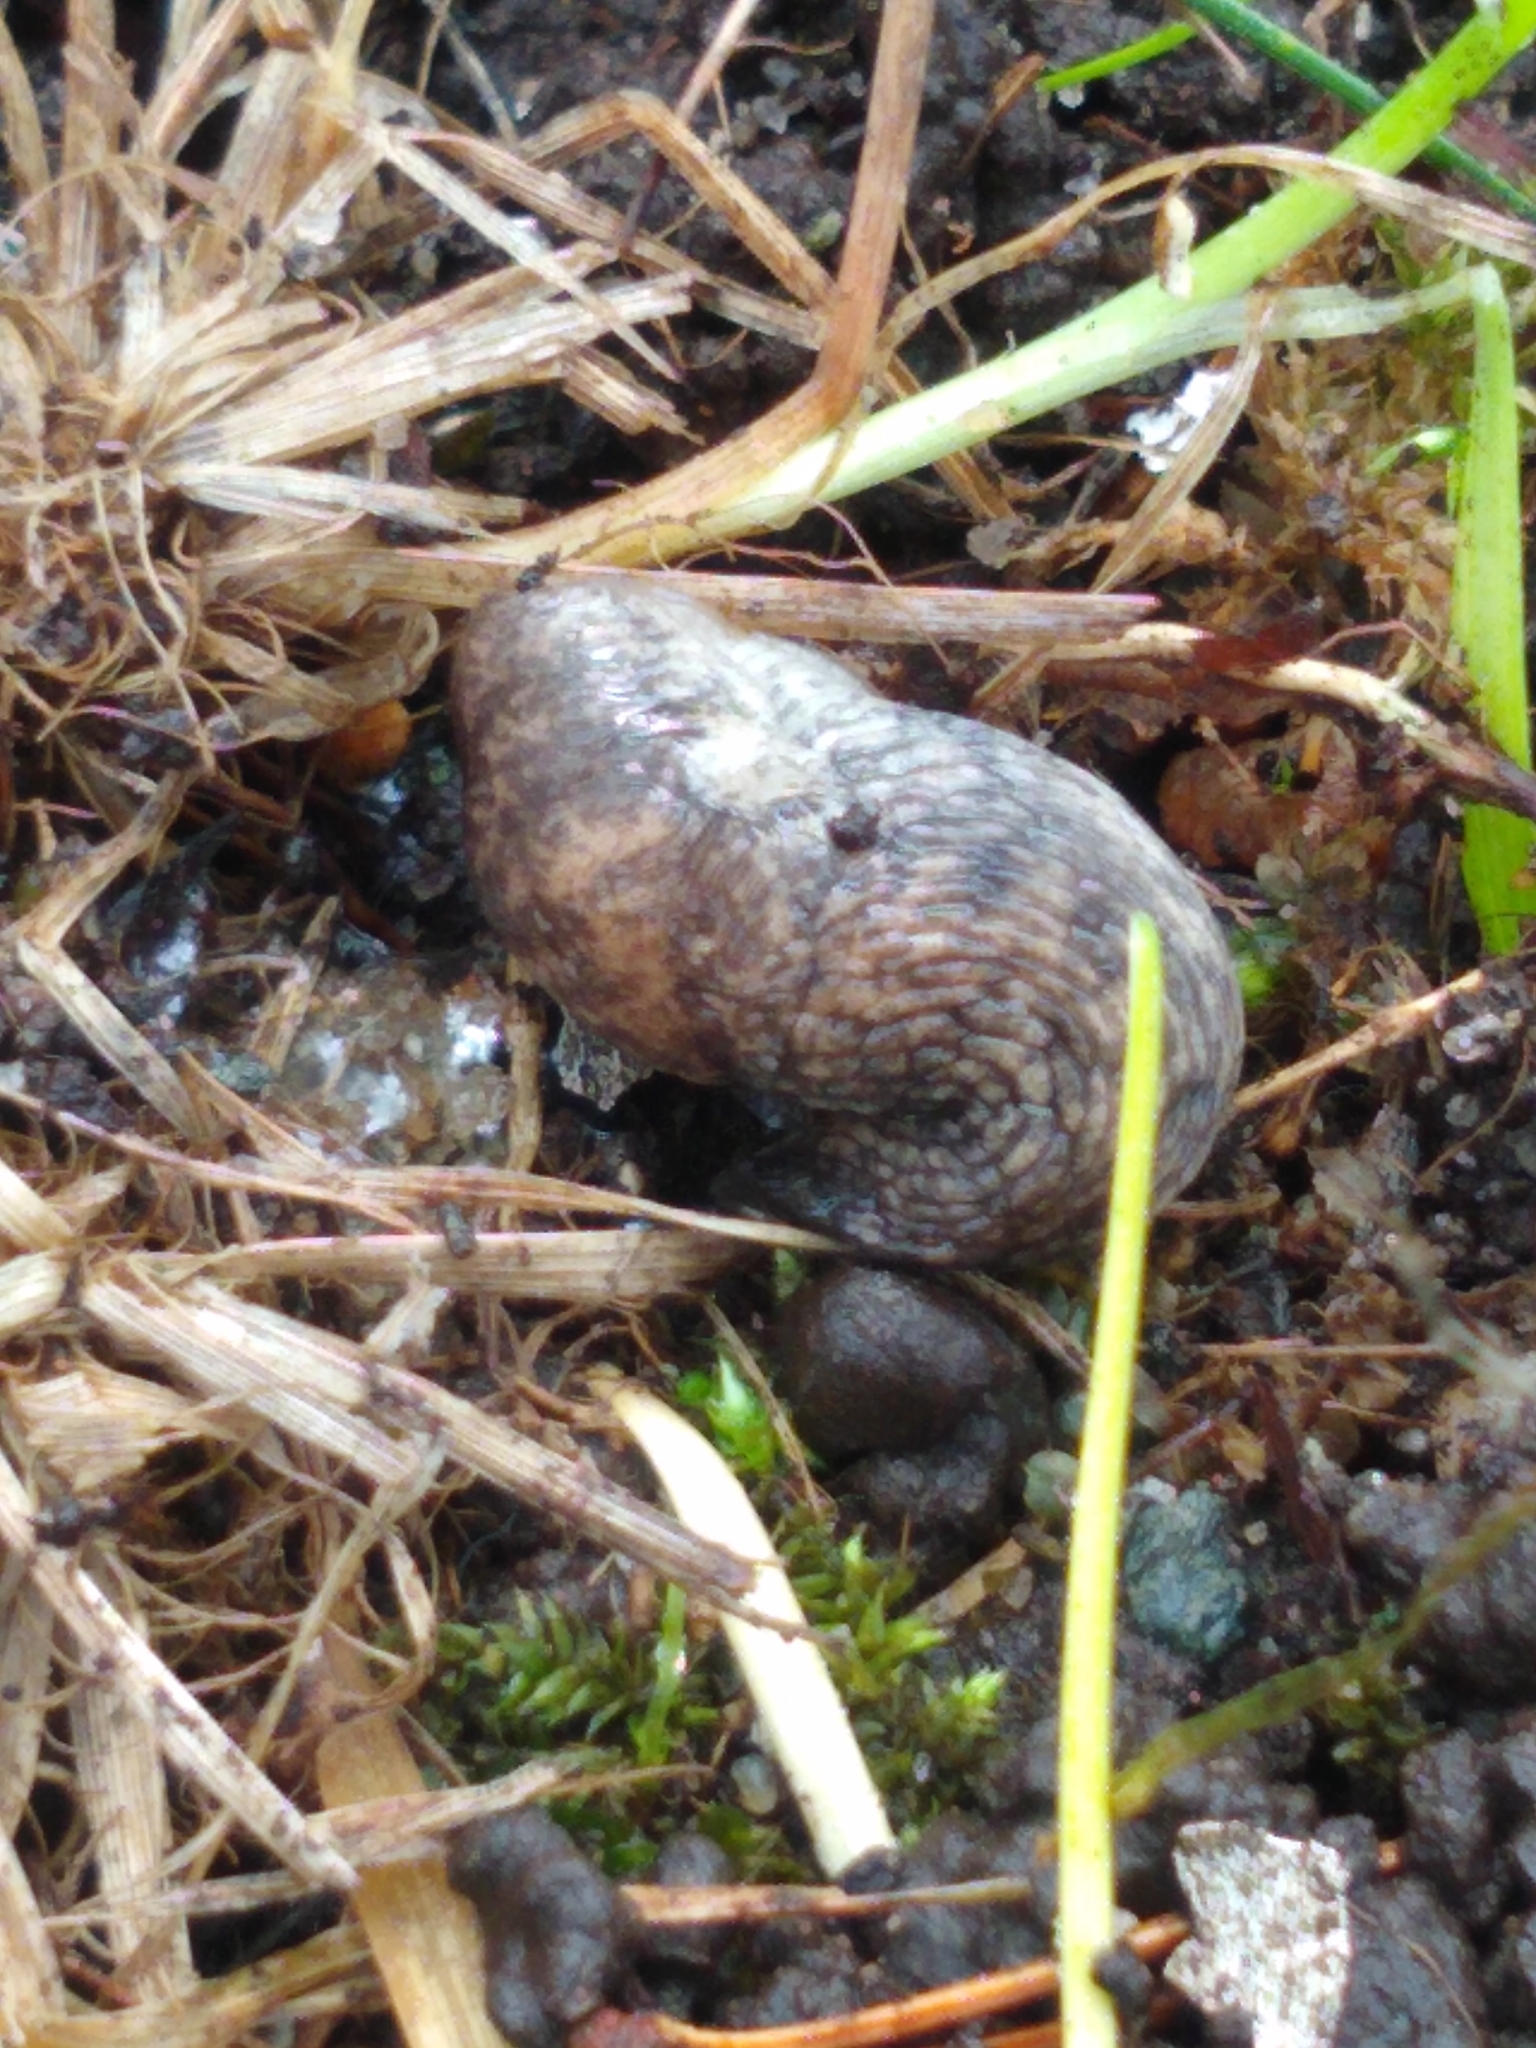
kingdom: Animalia
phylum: Mollusca
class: Gastropoda
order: Stylommatophora
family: Agriolimacidae
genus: Deroceras
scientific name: Deroceras reticulatum
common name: Gray field slug
